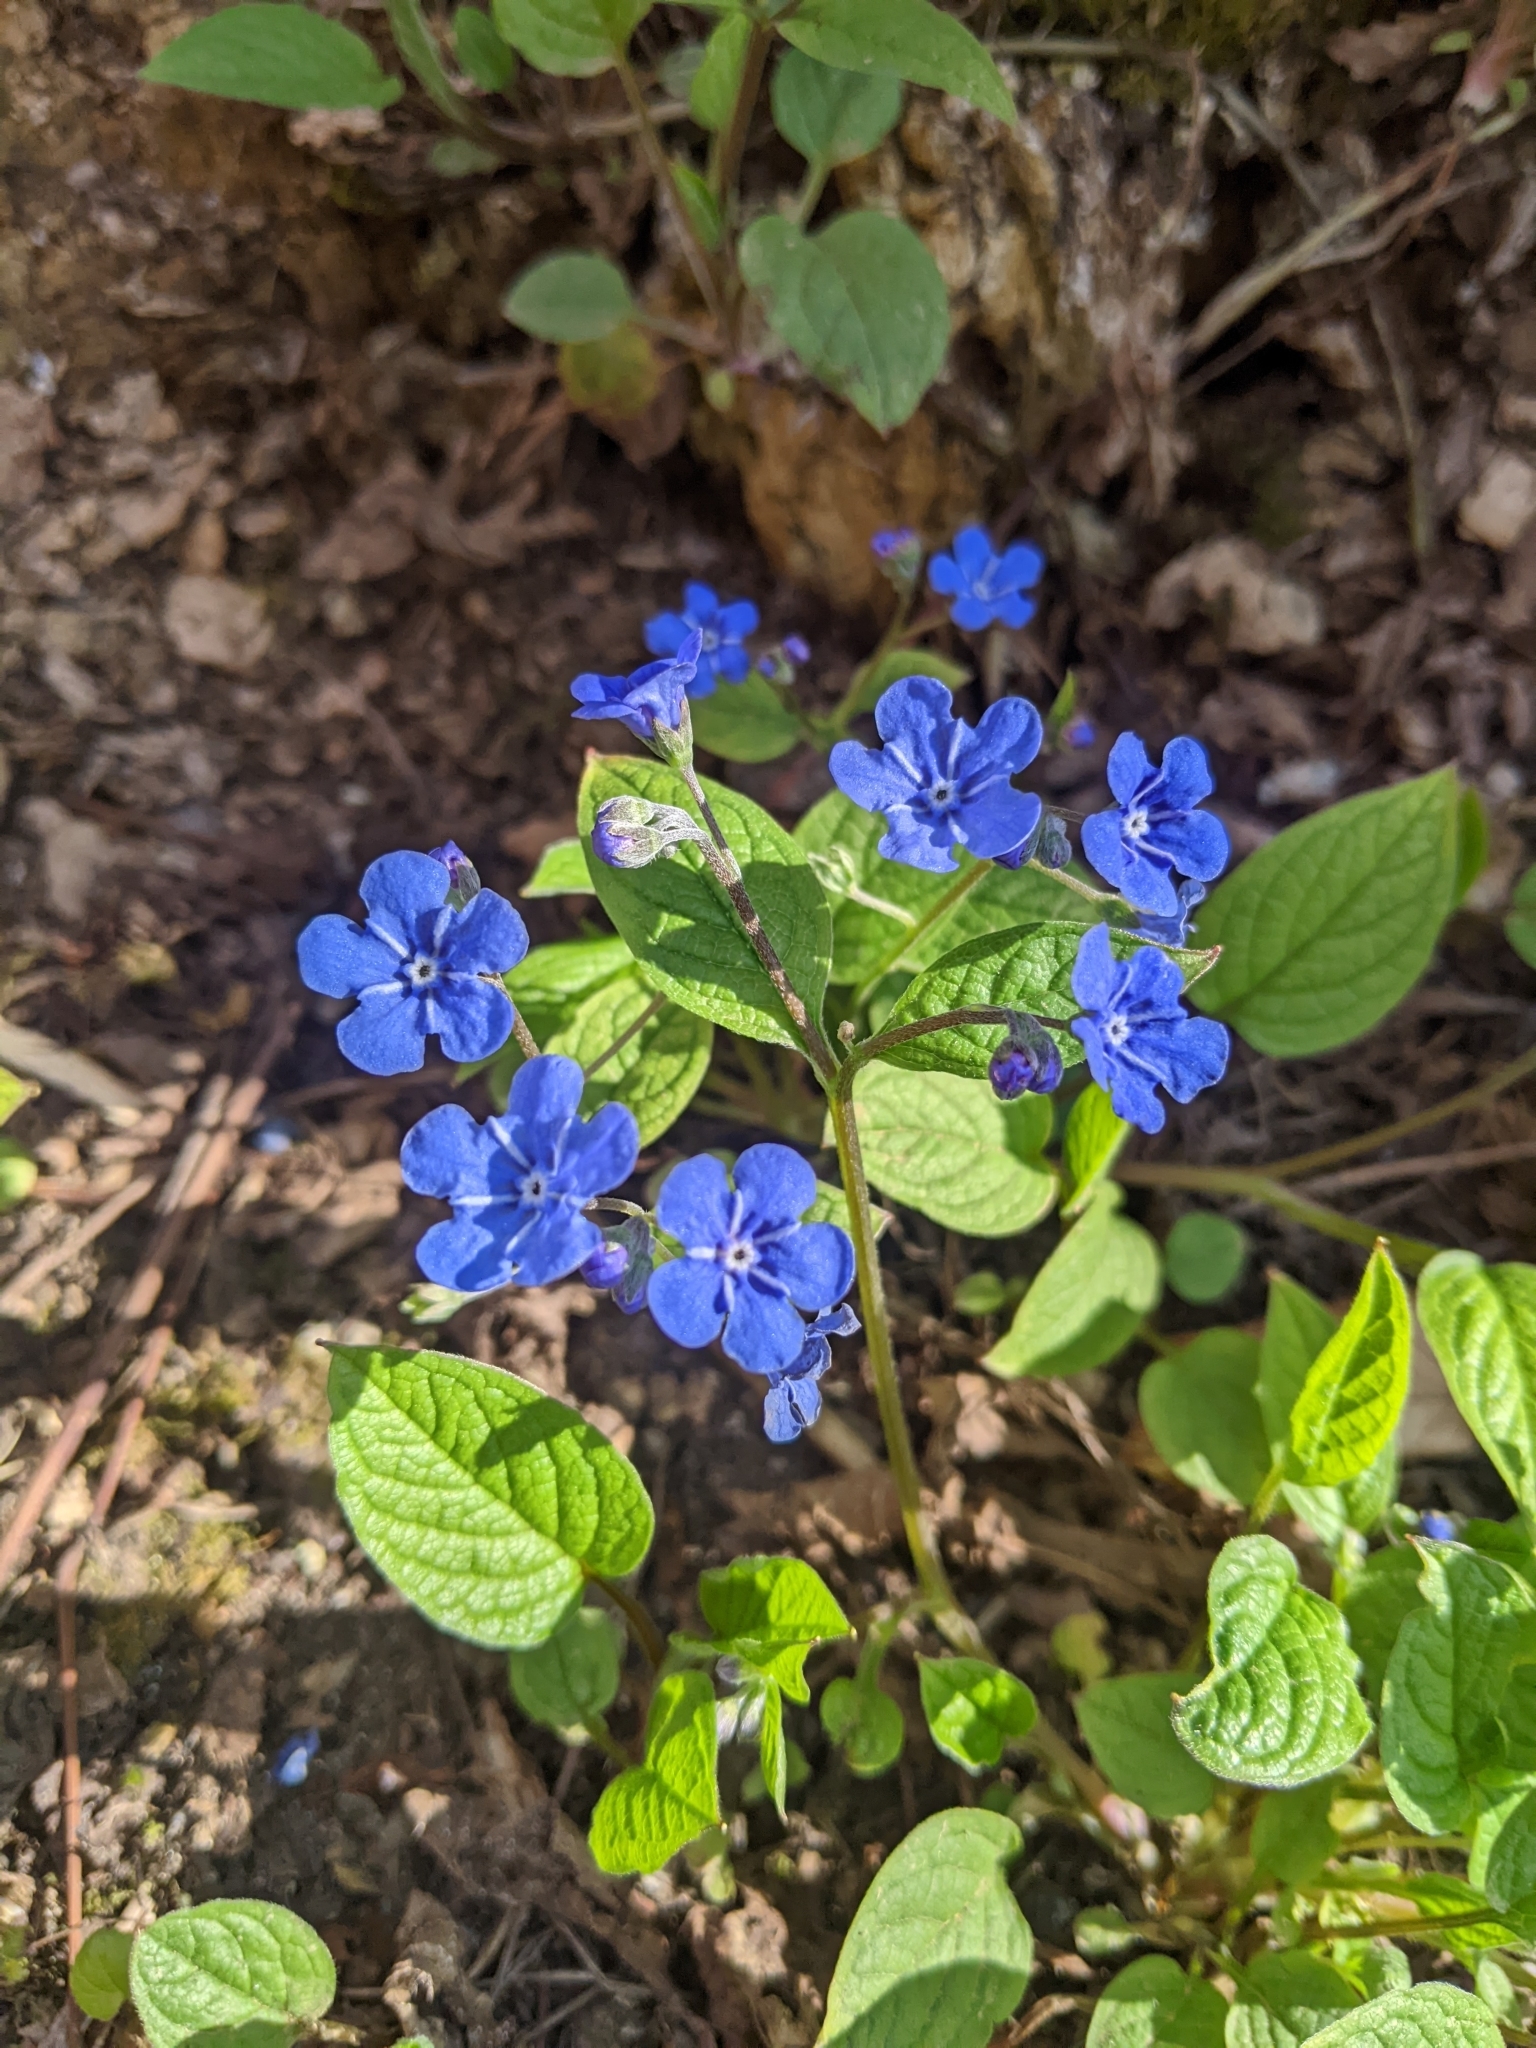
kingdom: Plantae
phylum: Tracheophyta
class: Magnoliopsida
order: Boraginales
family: Boraginaceae
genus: Omphalodes
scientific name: Omphalodes verna
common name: Blue-eyed-mary
